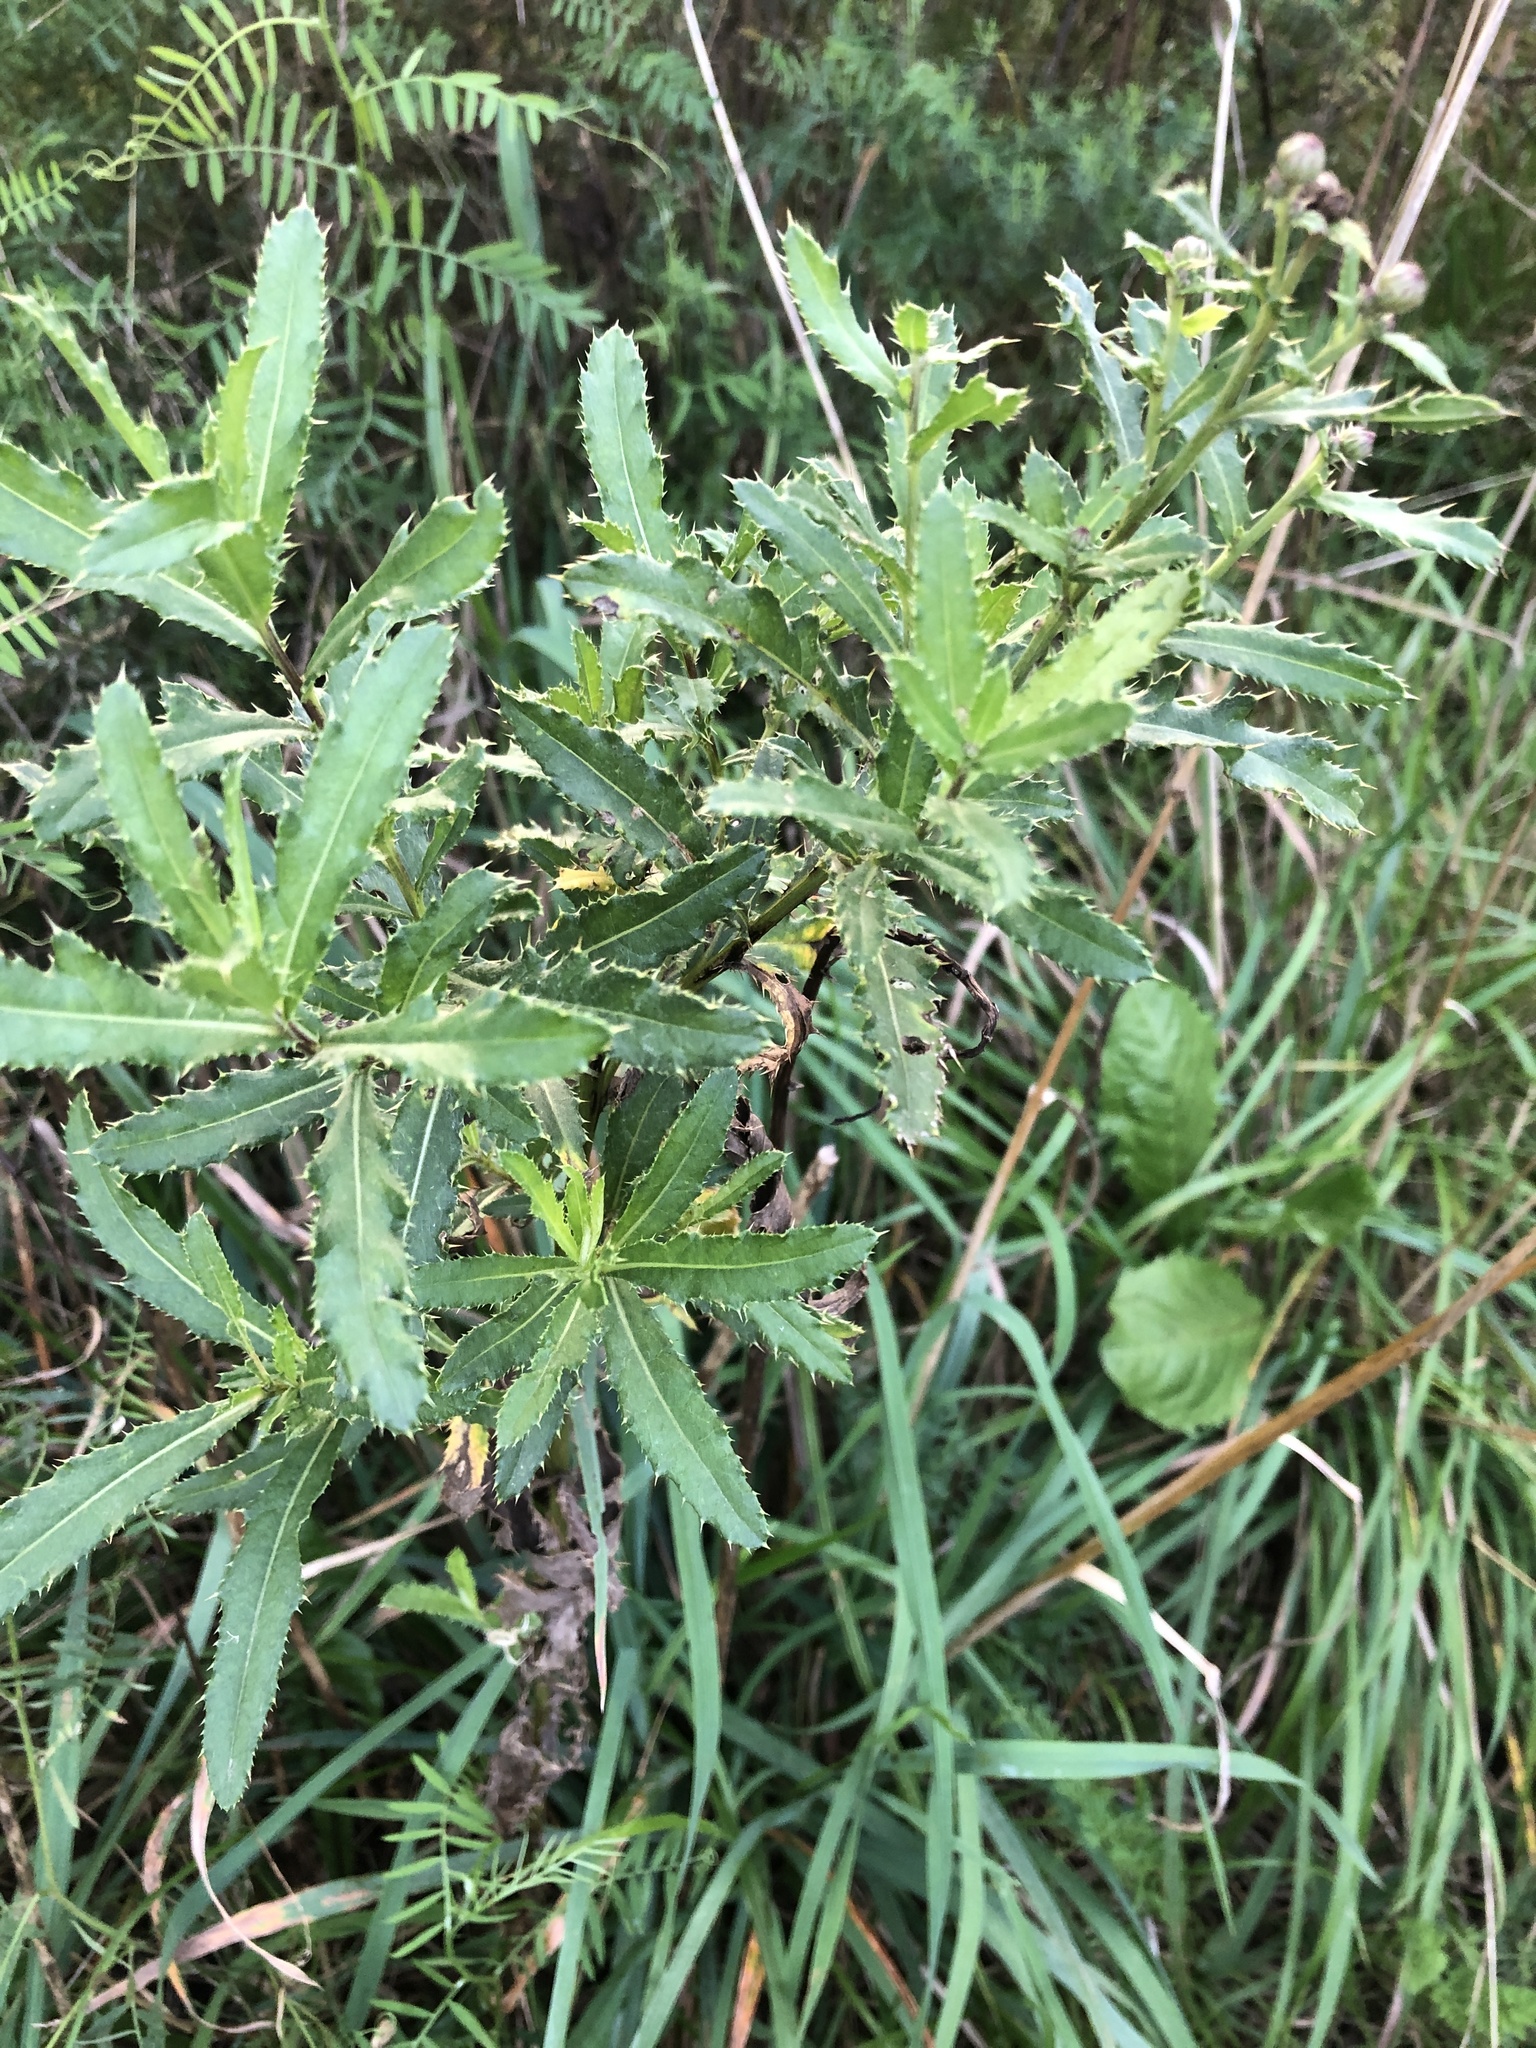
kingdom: Plantae
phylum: Tracheophyta
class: Magnoliopsida
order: Asterales
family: Asteraceae
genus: Cirsium
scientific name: Cirsium arvense
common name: Creeping thistle
